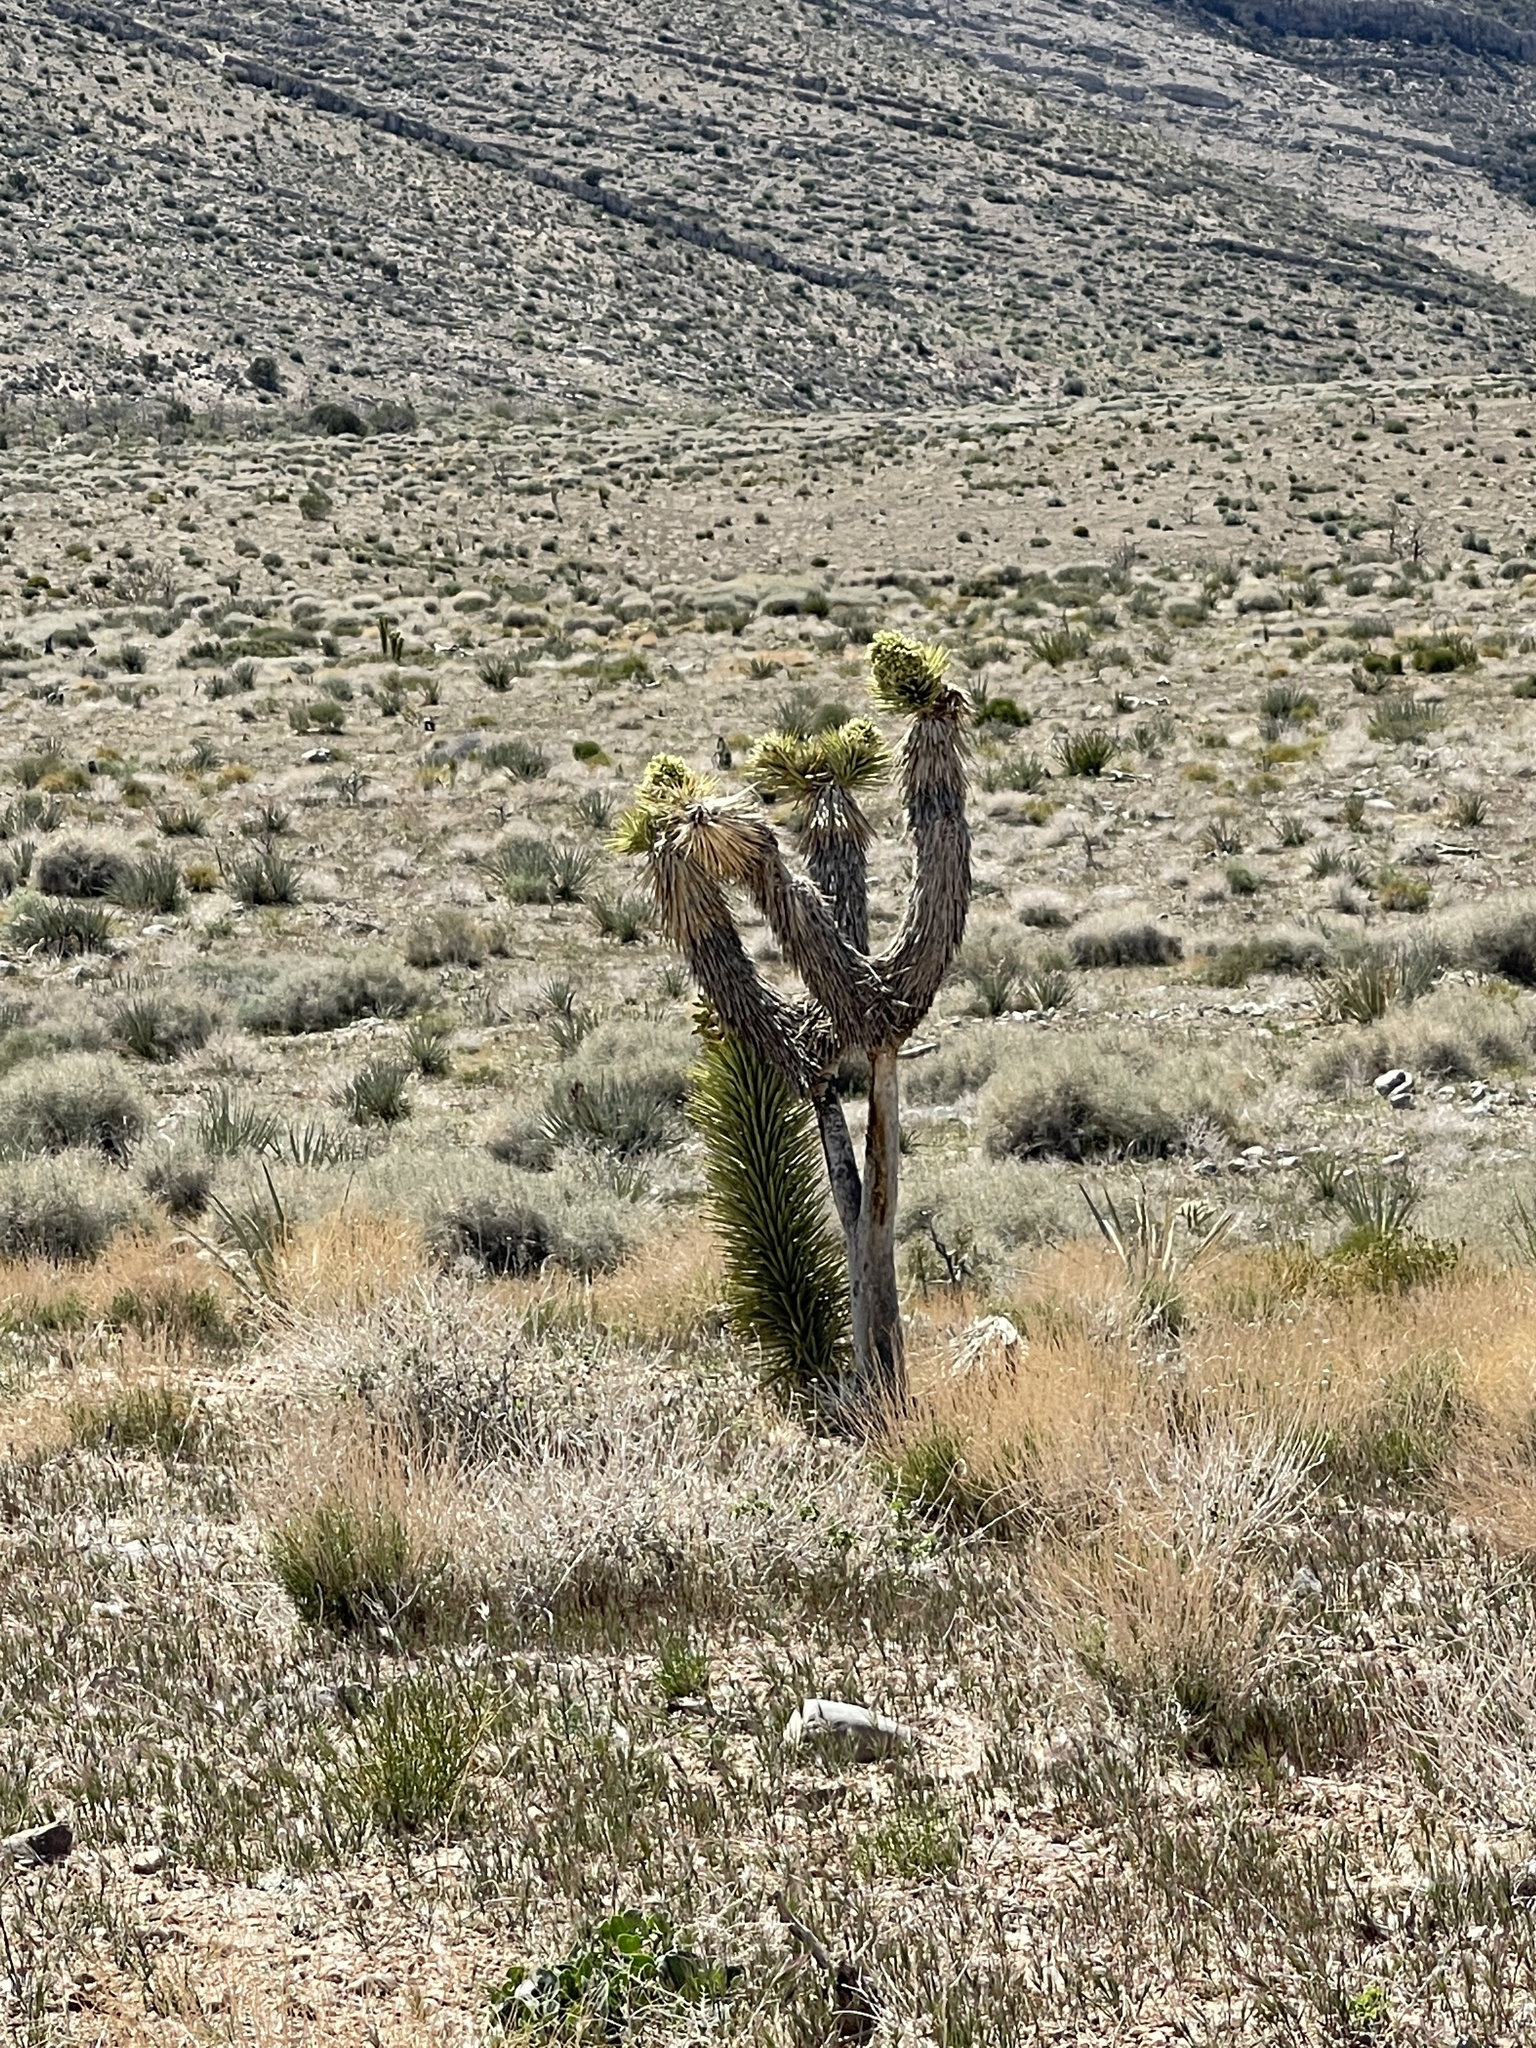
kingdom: Plantae
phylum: Tracheophyta
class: Liliopsida
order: Asparagales
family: Asparagaceae
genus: Yucca
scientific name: Yucca brevifolia
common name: Joshua tree
